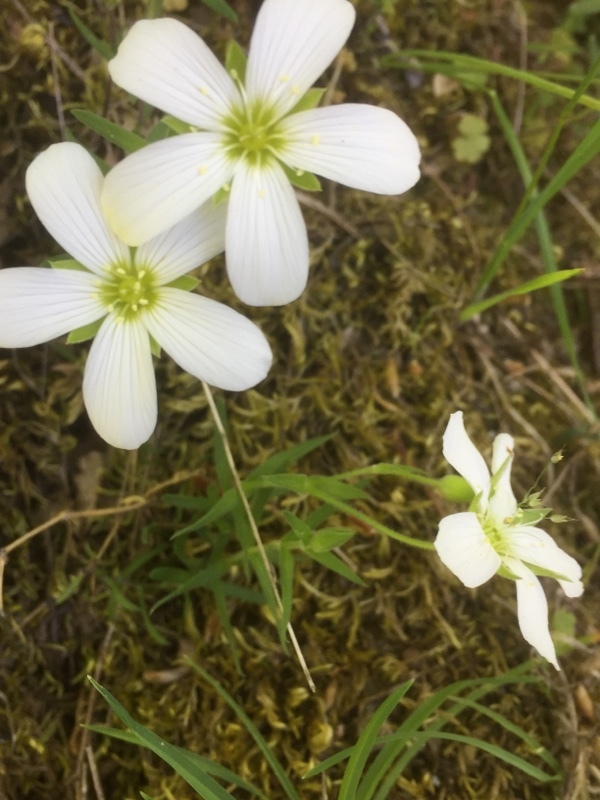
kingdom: Plantae
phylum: Tracheophyta
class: Magnoliopsida
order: Caryophyllales
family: Caryophyllaceae
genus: Arenaria
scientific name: Arenaria montana
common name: Mountain sandwort
